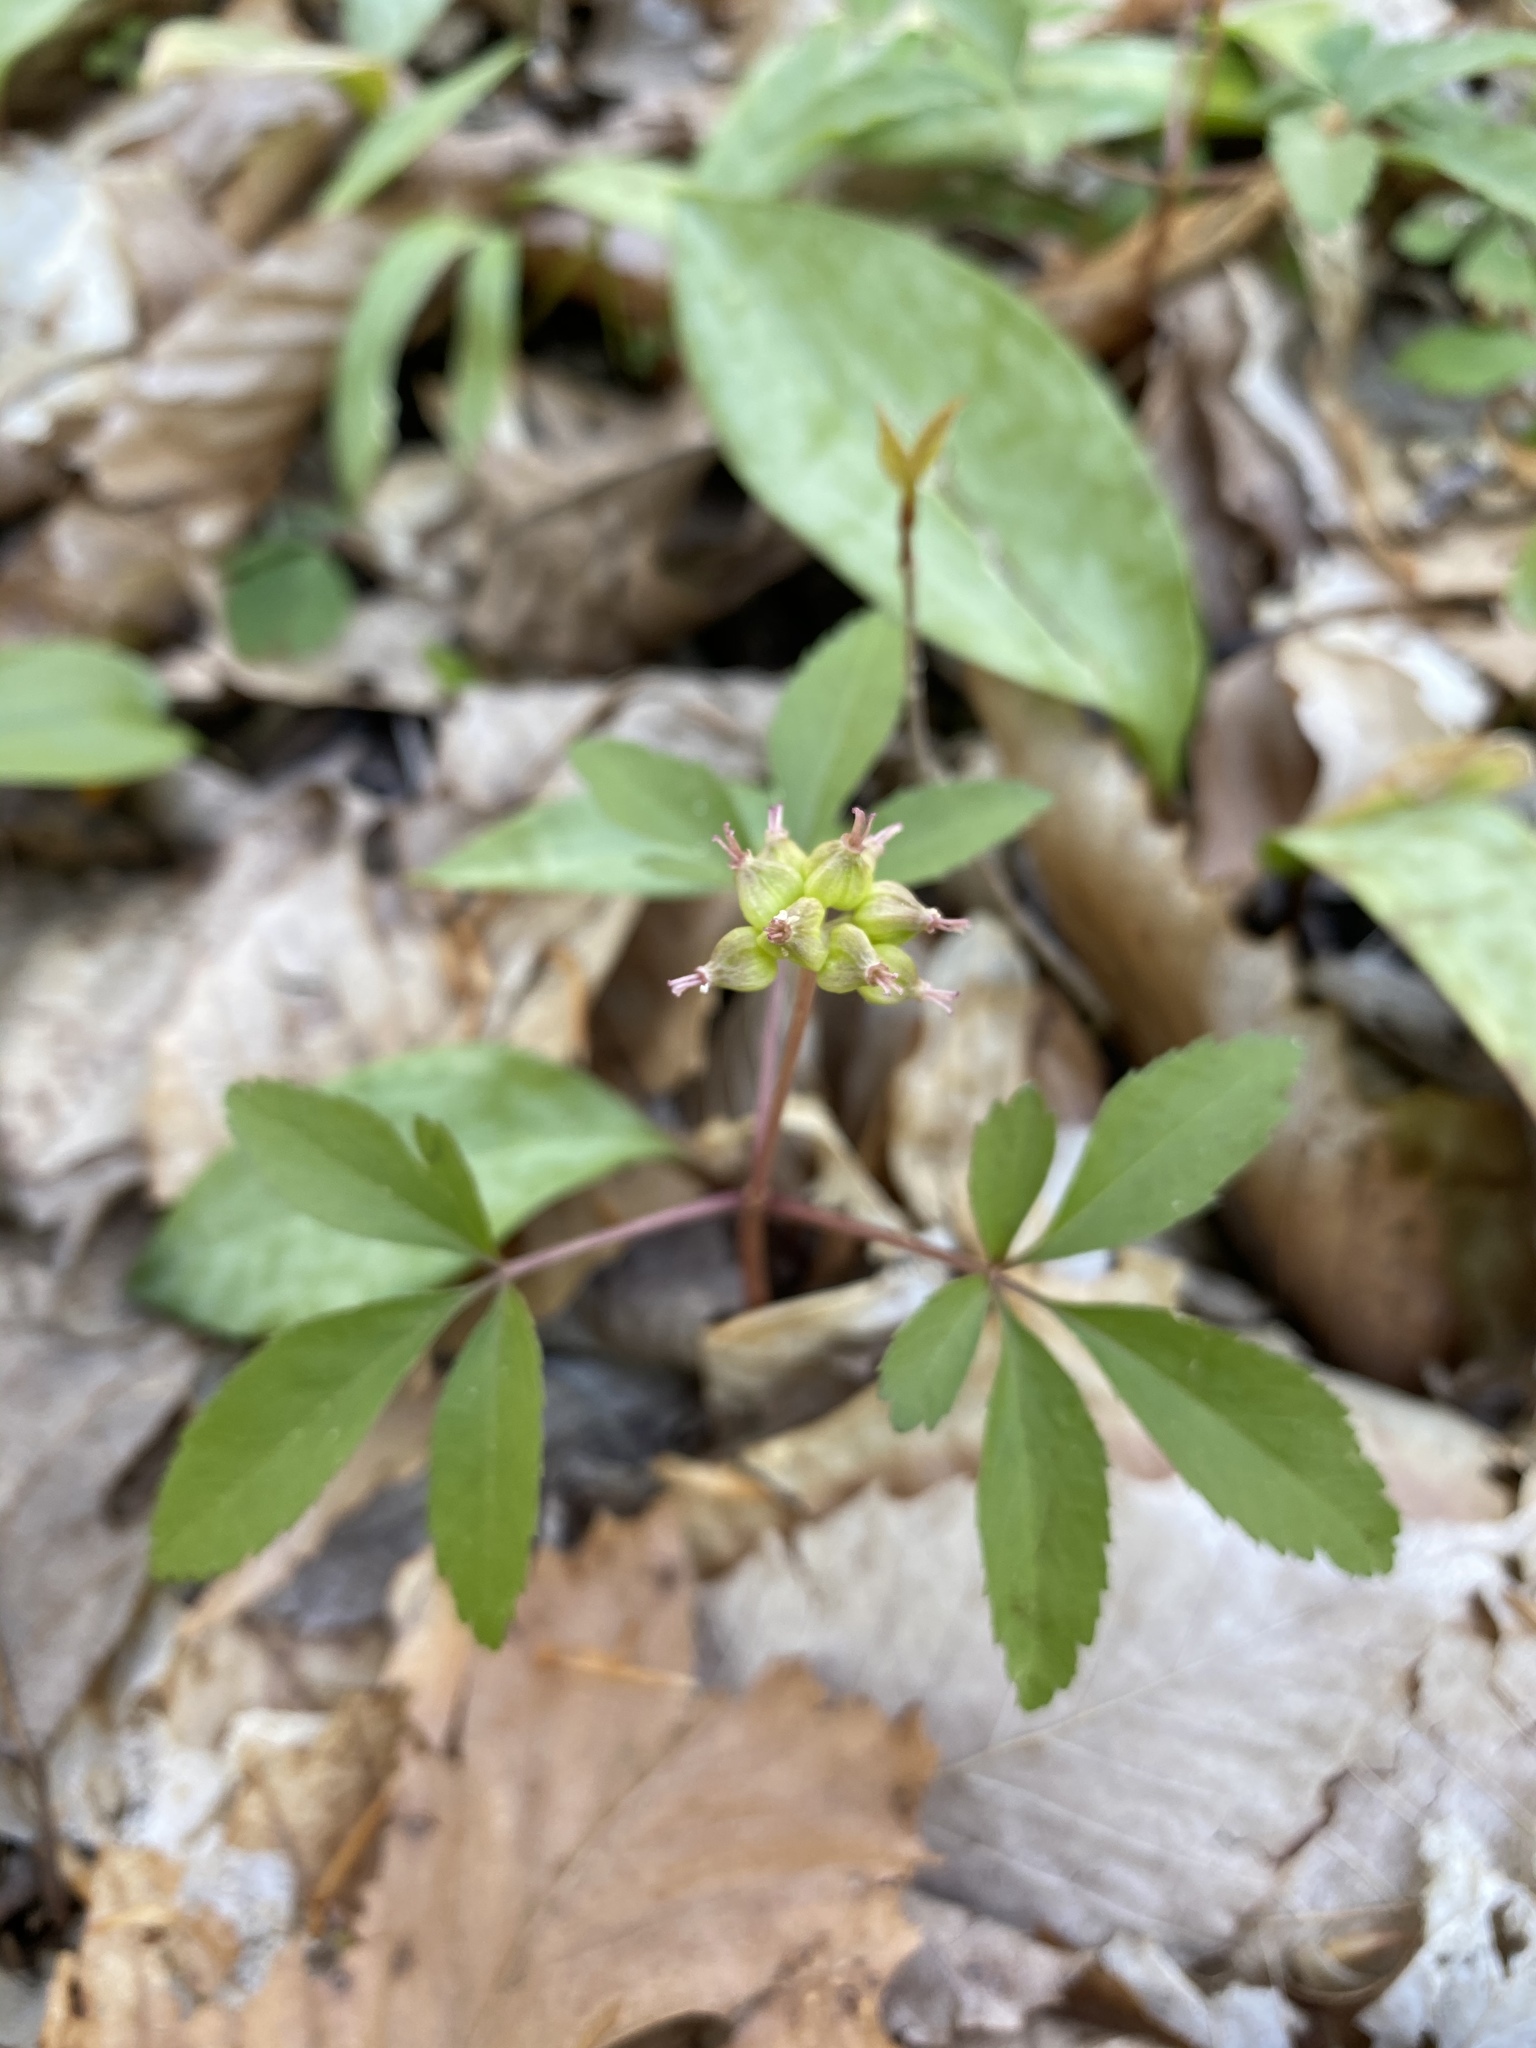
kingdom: Plantae
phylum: Tracheophyta
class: Magnoliopsida
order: Apiales
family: Araliaceae
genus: Panax
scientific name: Panax trifolius
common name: Dwarf ginseng
